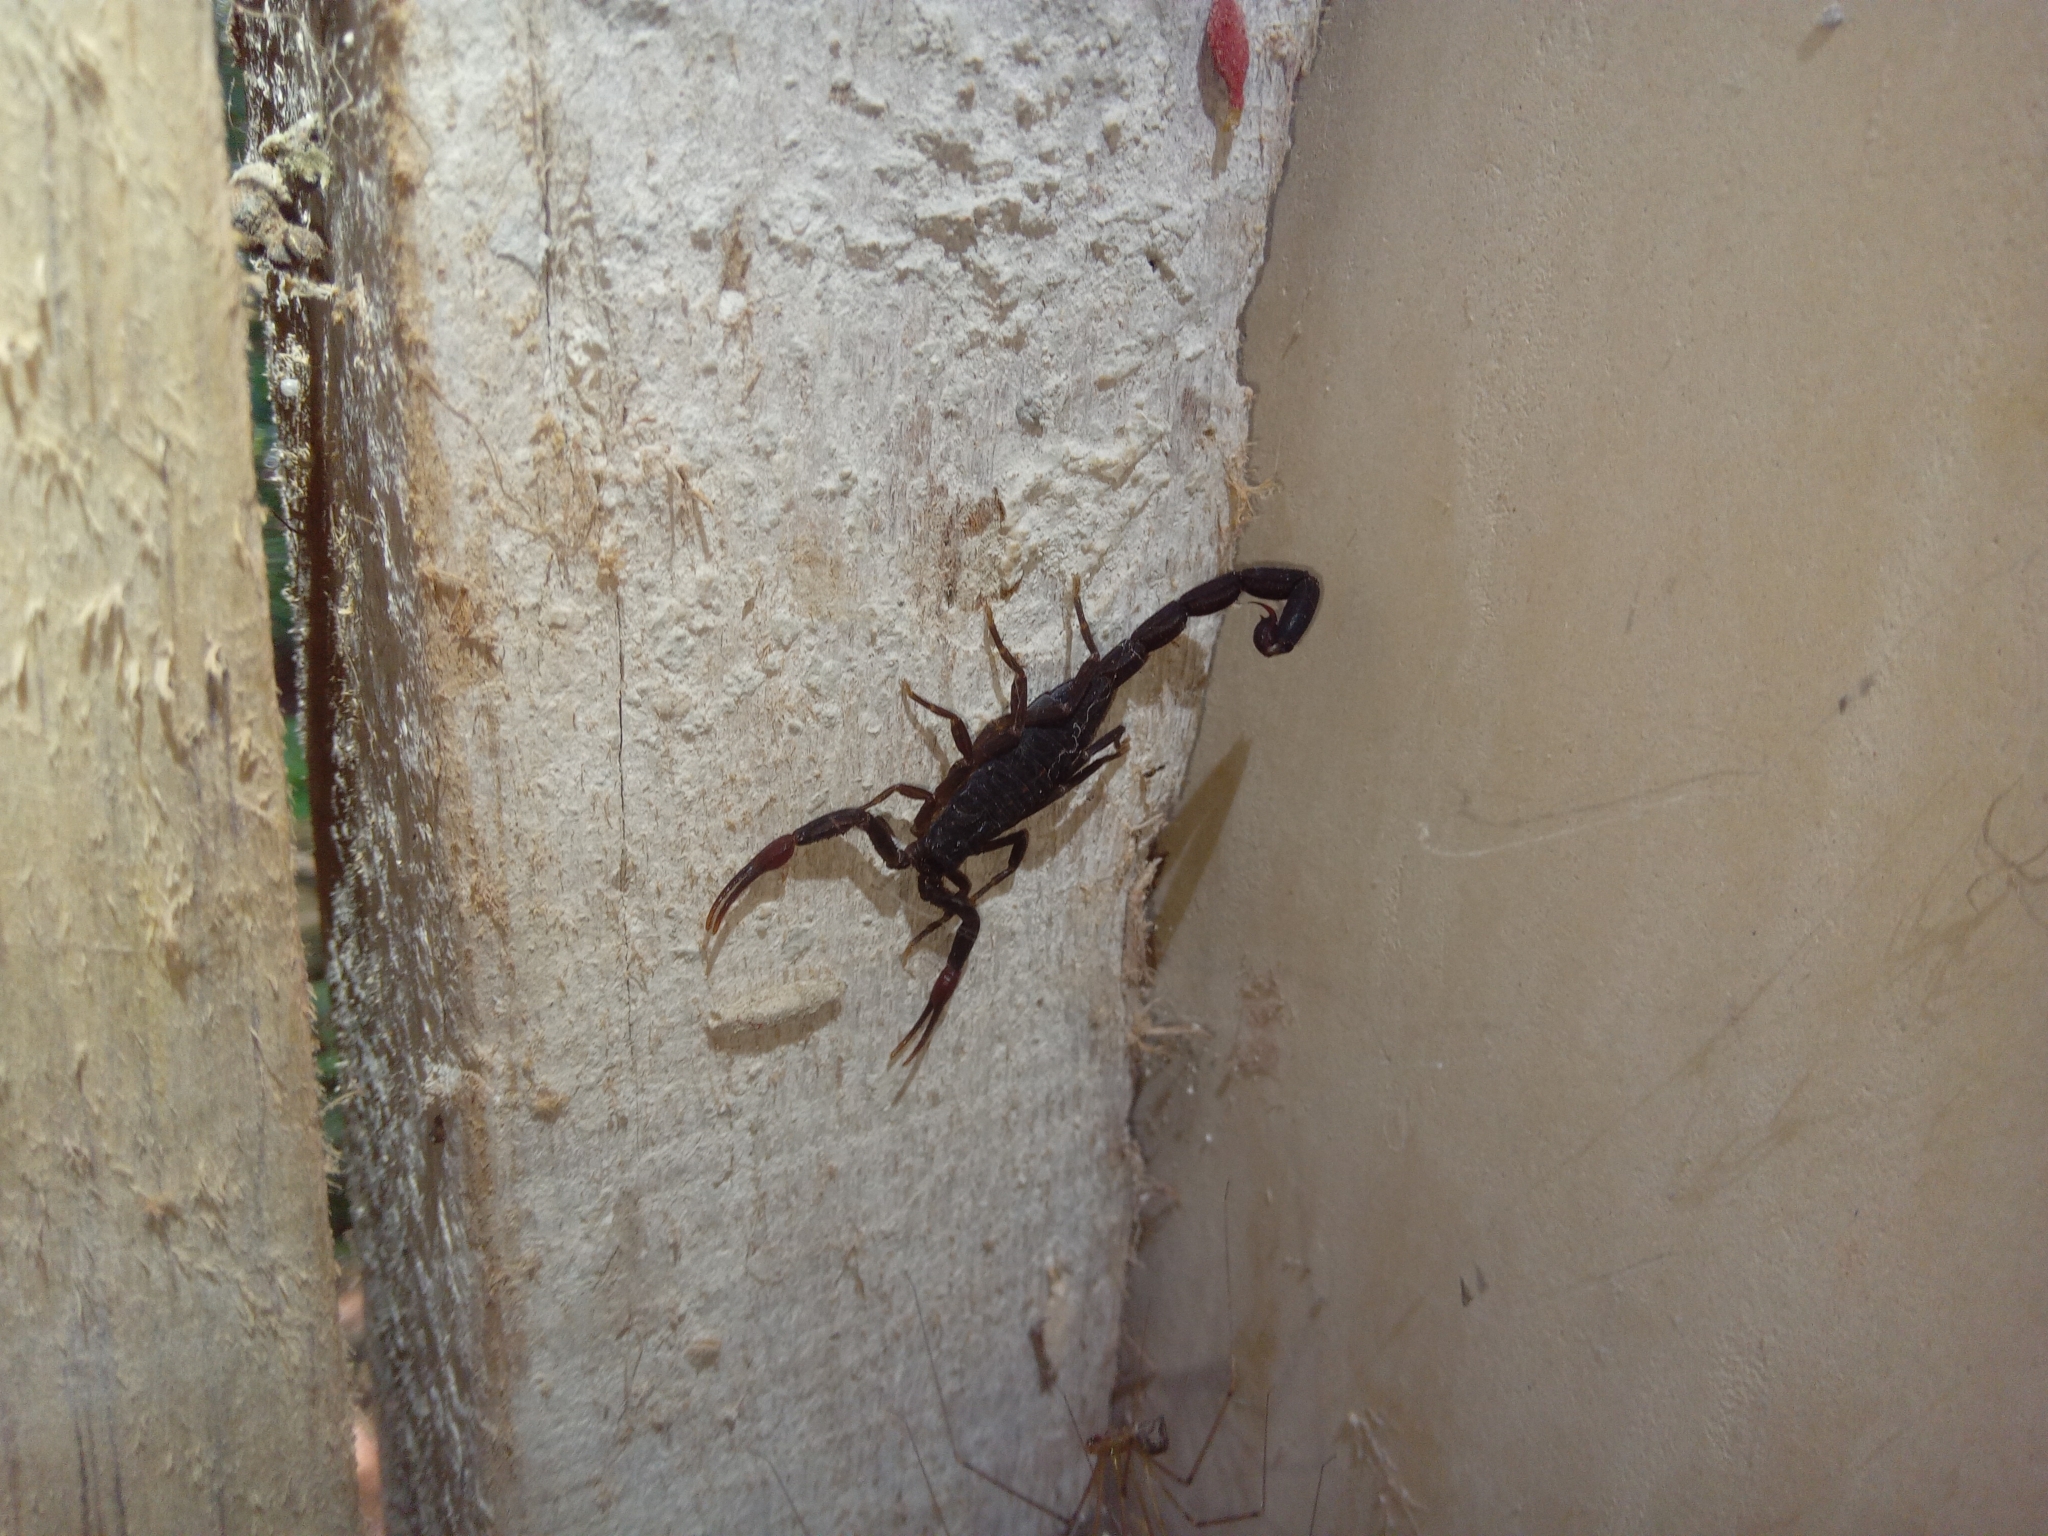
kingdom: Animalia
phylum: Arthropoda
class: Arachnida
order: Scorpiones
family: Buthidae
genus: Centruroides
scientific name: Centruroides gracilis
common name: Scorpions
